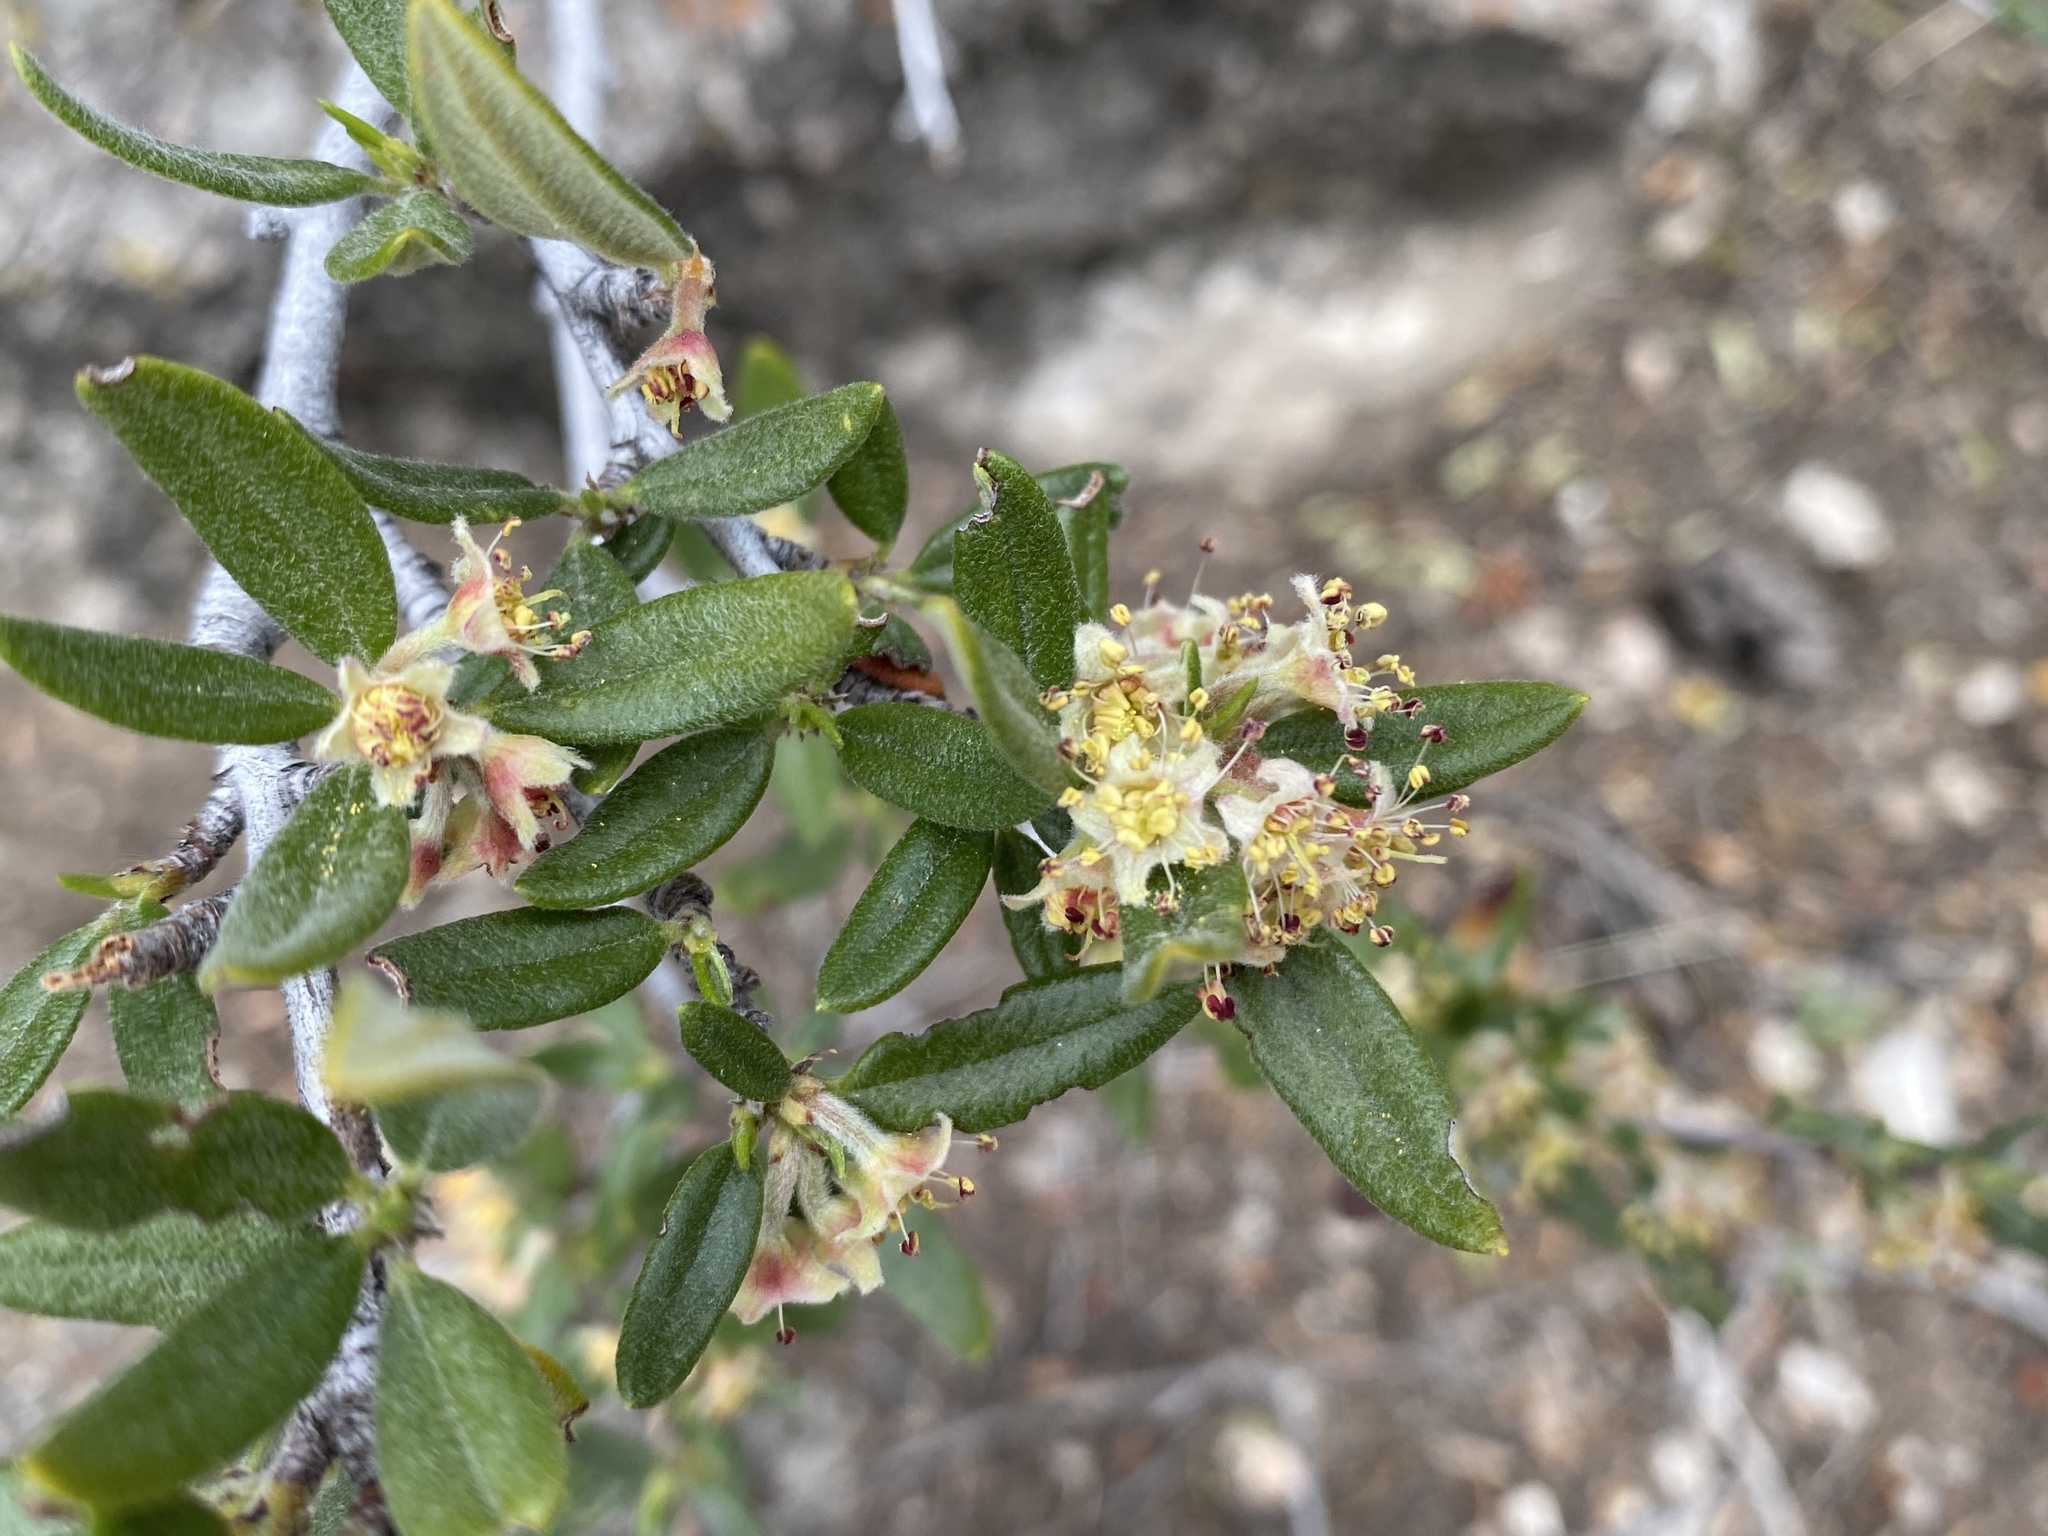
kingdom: Plantae
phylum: Tracheophyta
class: Magnoliopsida
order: Rosales
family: Rosaceae
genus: Cercocarpus
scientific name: Cercocarpus ledifolius
